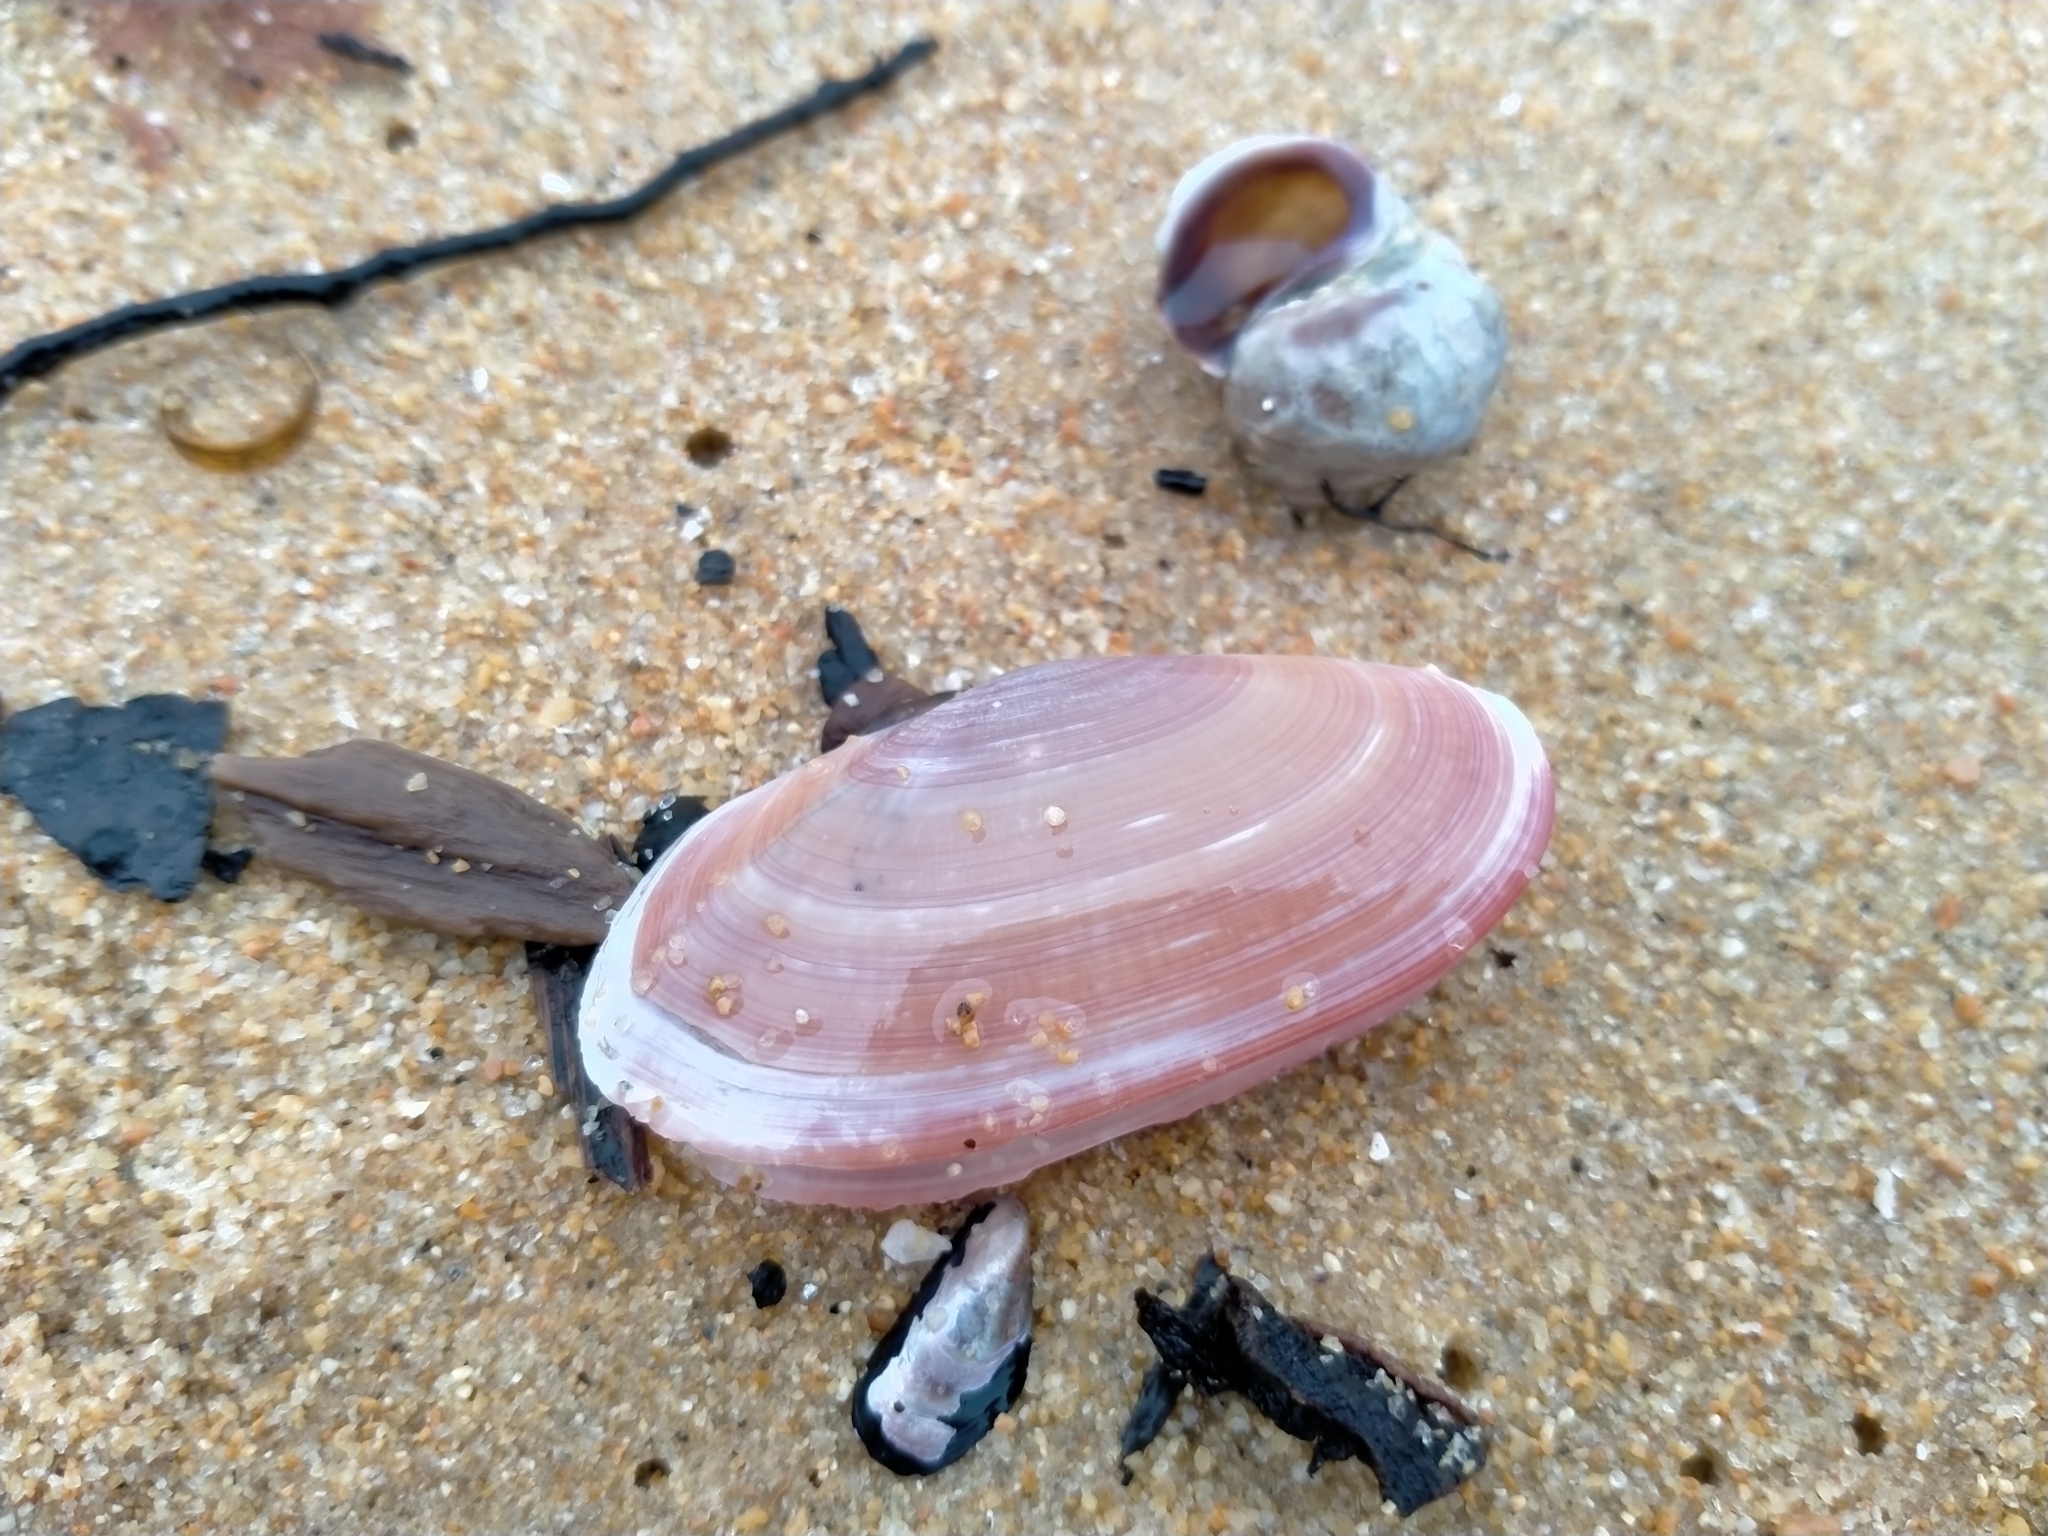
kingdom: Animalia
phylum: Mollusca
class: Bivalvia
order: Cardiida
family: Psammobiidae
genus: Gari
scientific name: Gari lineolata
